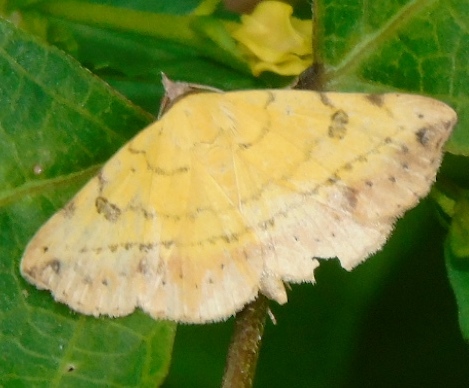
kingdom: Animalia
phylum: Arthropoda
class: Insecta
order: Lepidoptera
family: Erebidae
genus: Hemeroplanis
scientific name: Hemeroplanis scopulepes
